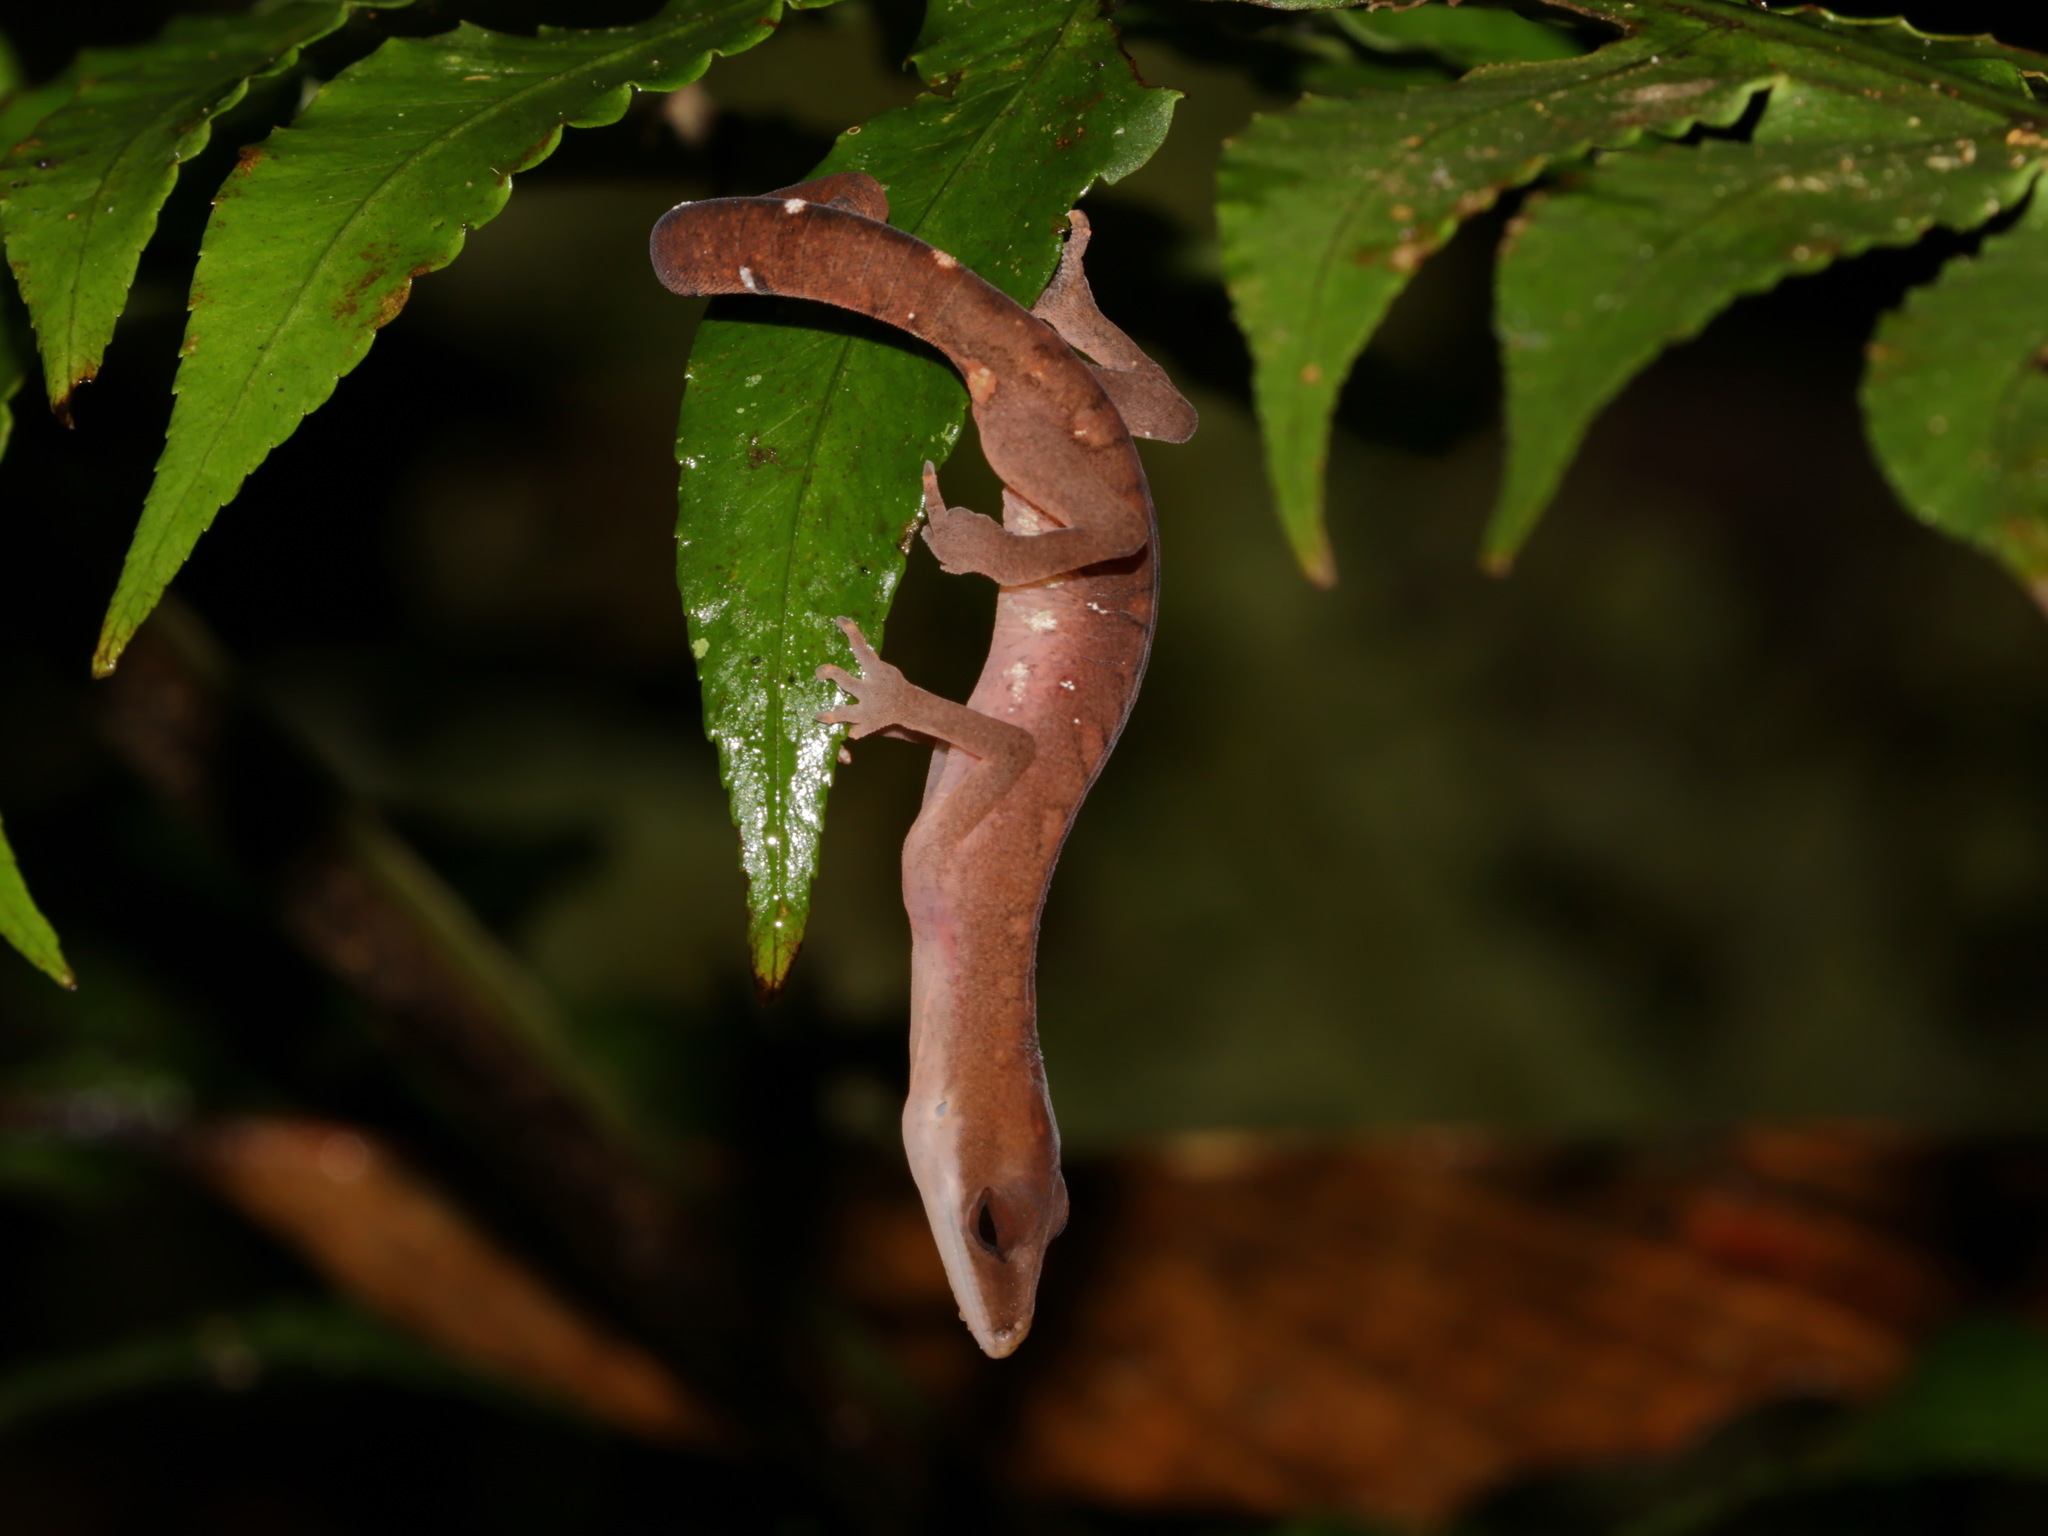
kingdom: Animalia
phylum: Chordata
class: Squamata
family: Eublepharidae
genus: Aeluroscalabotes
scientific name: Aeluroscalabotes felinus
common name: Cat gecko
